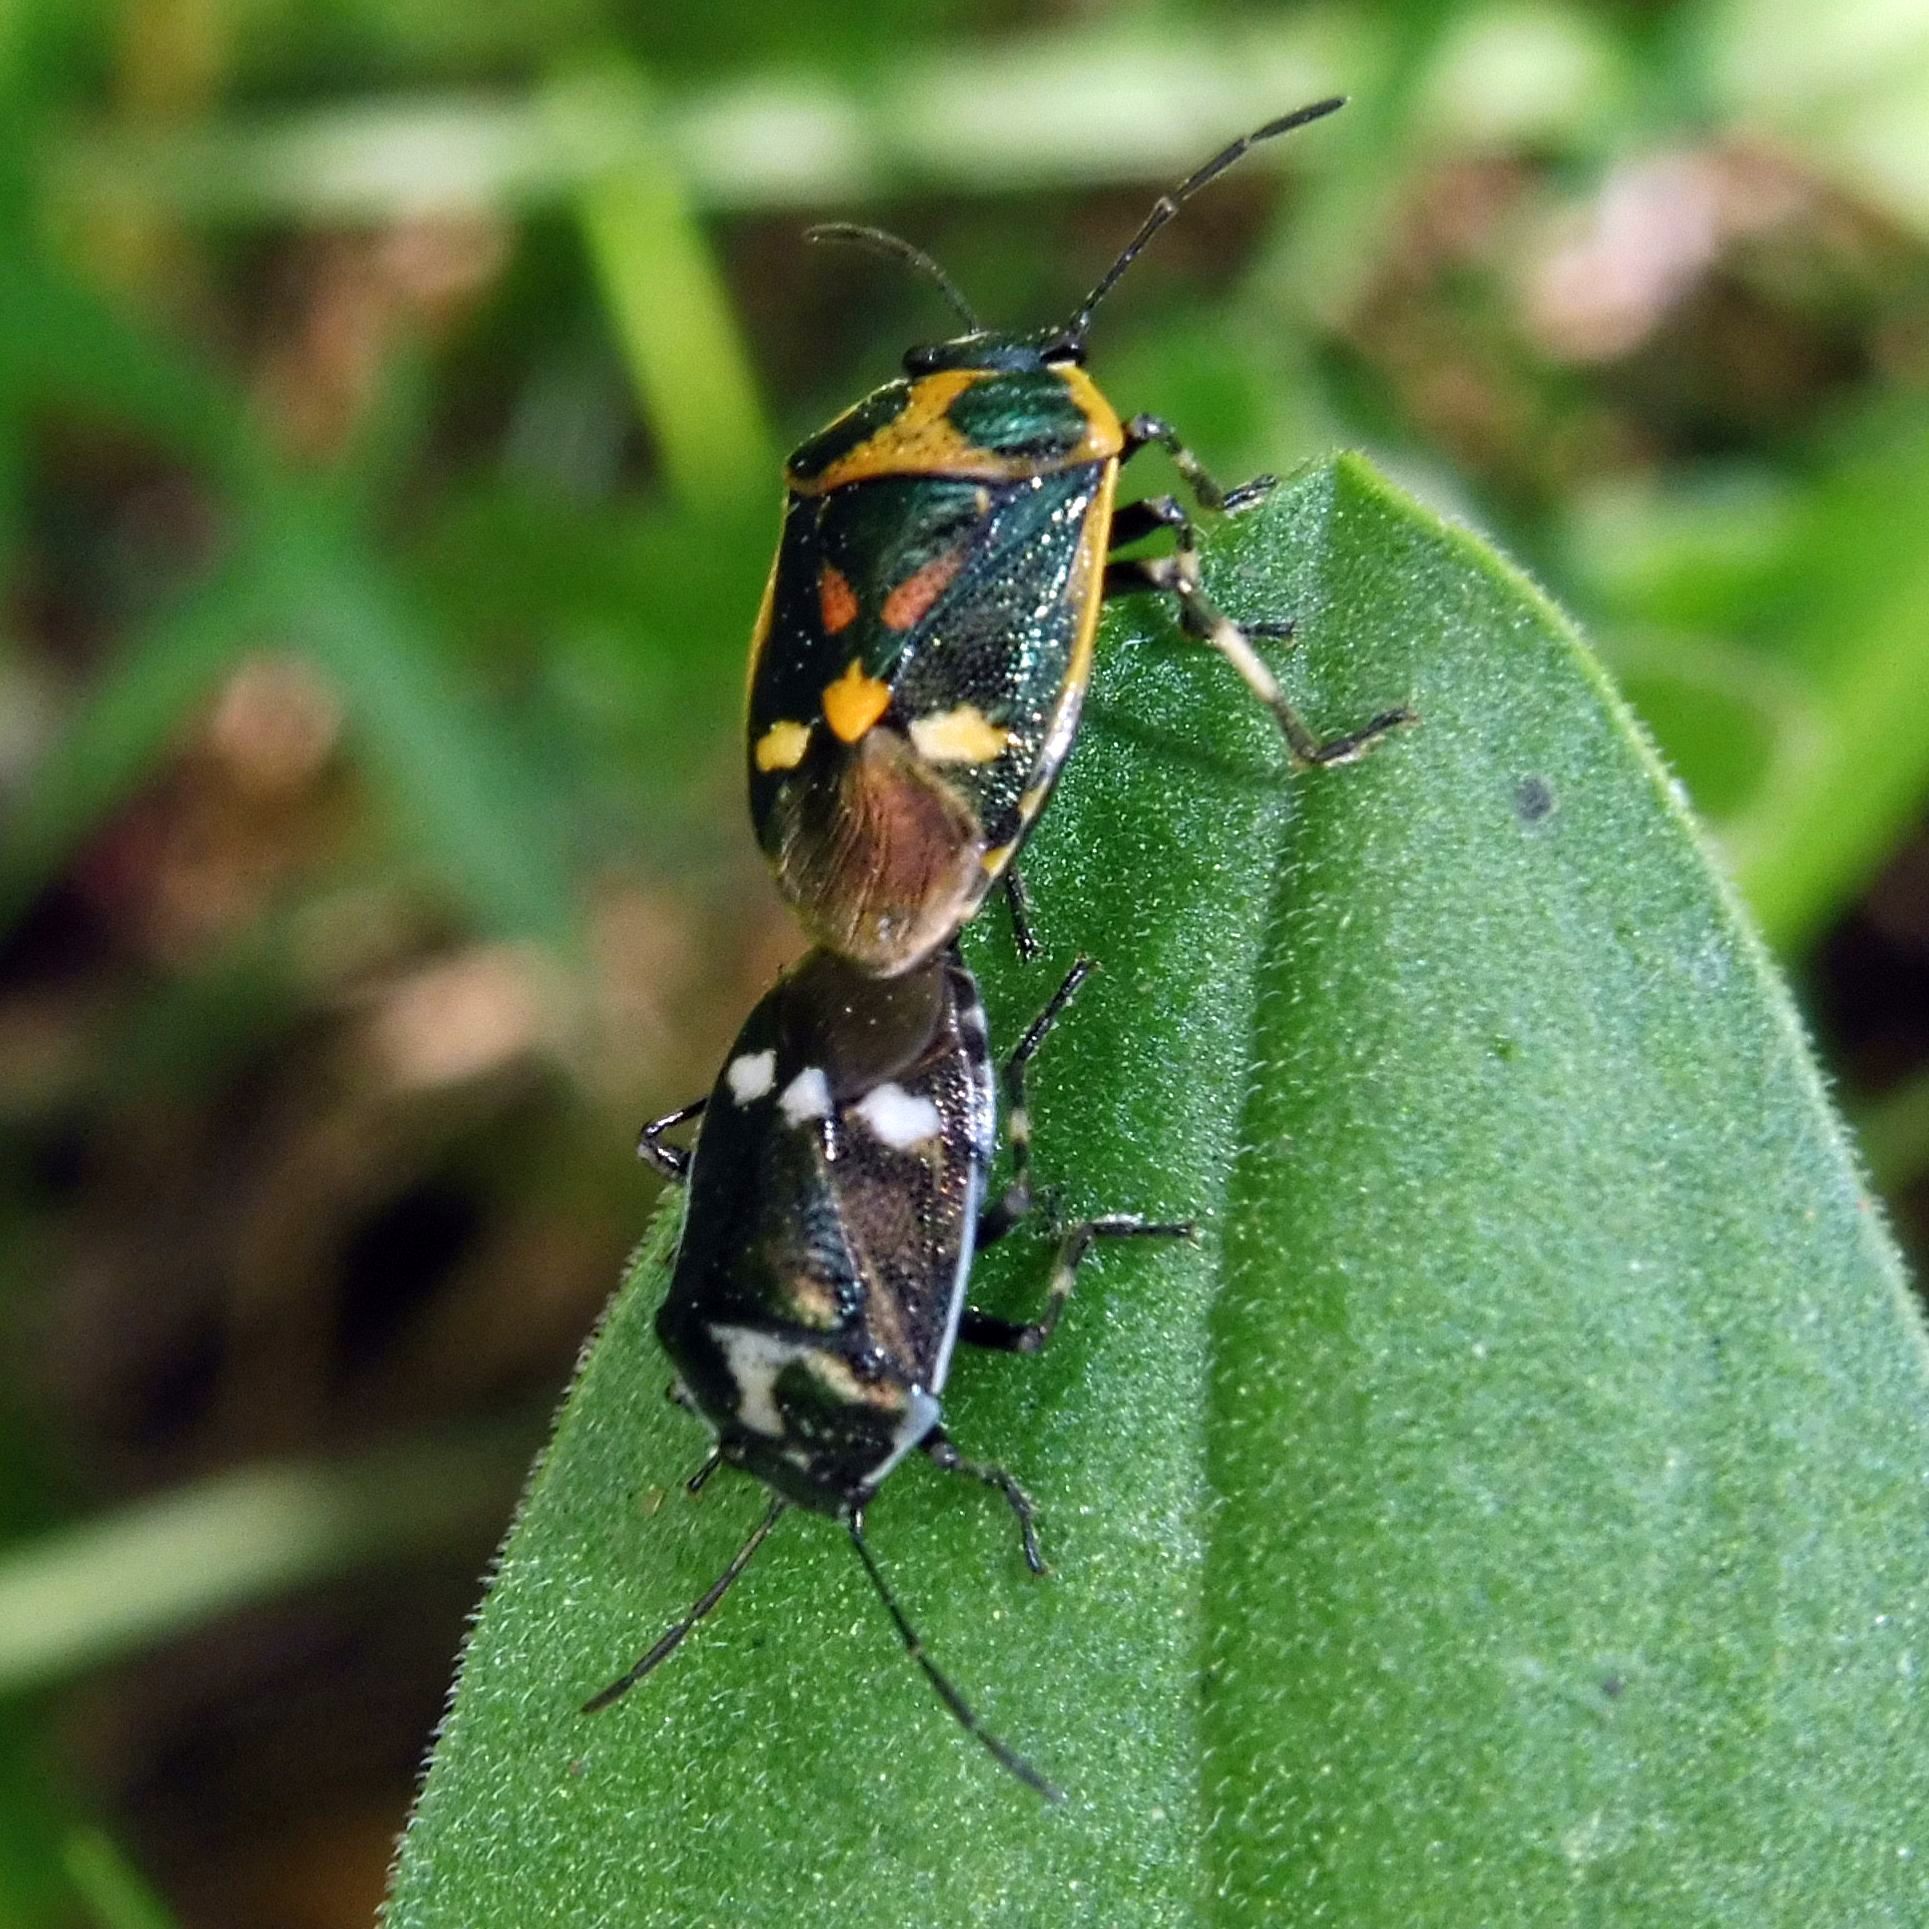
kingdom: Animalia
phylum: Arthropoda
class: Insecta
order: Hemiptera
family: Pentatomidae
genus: Eurydema
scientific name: Eurydema oleracea
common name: Cabbage bug
